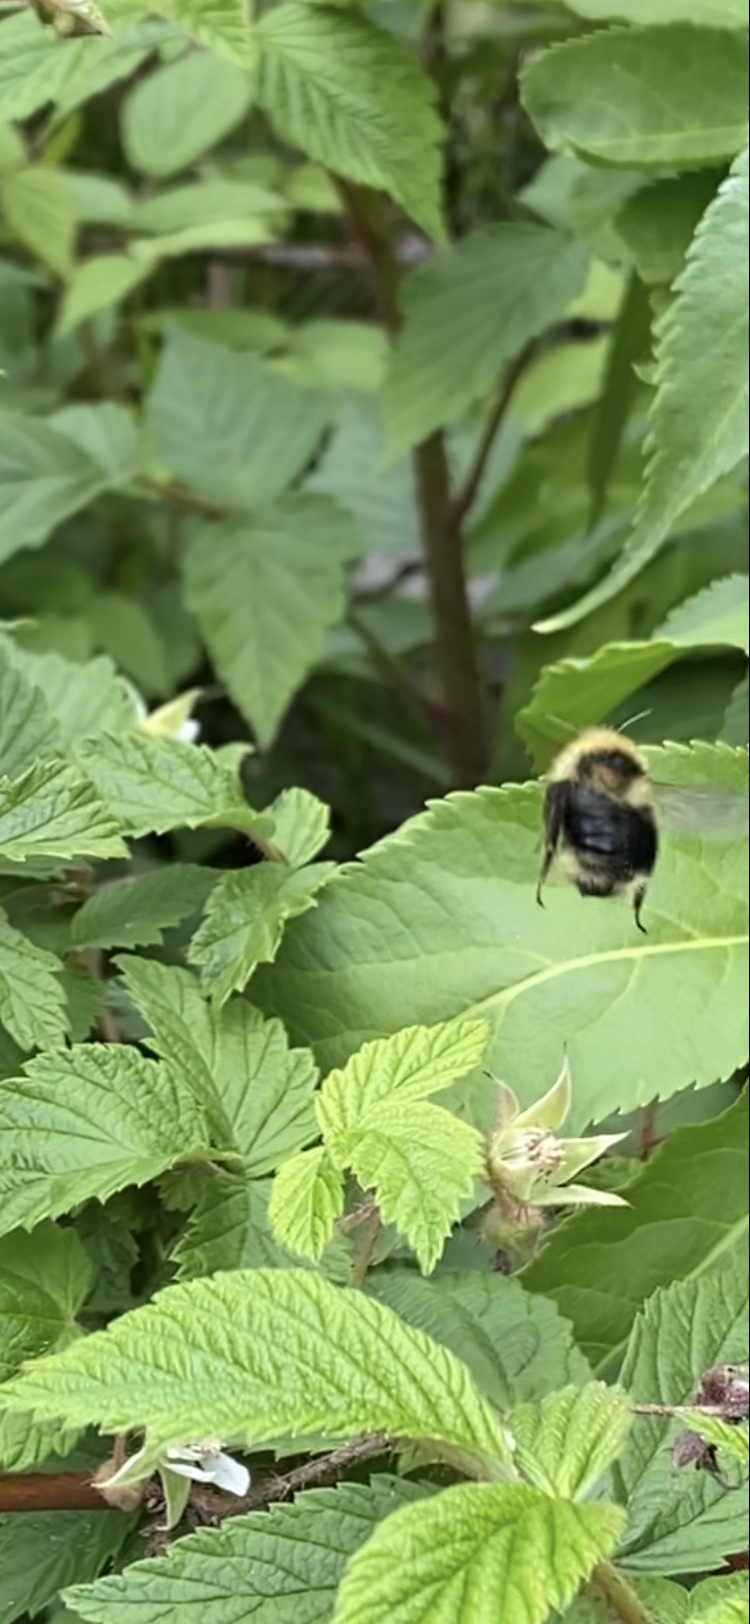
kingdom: Animalia
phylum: Arthropoda
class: Insecta
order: Hymenoptera
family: Apidae
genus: Bombus
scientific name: Bombus
